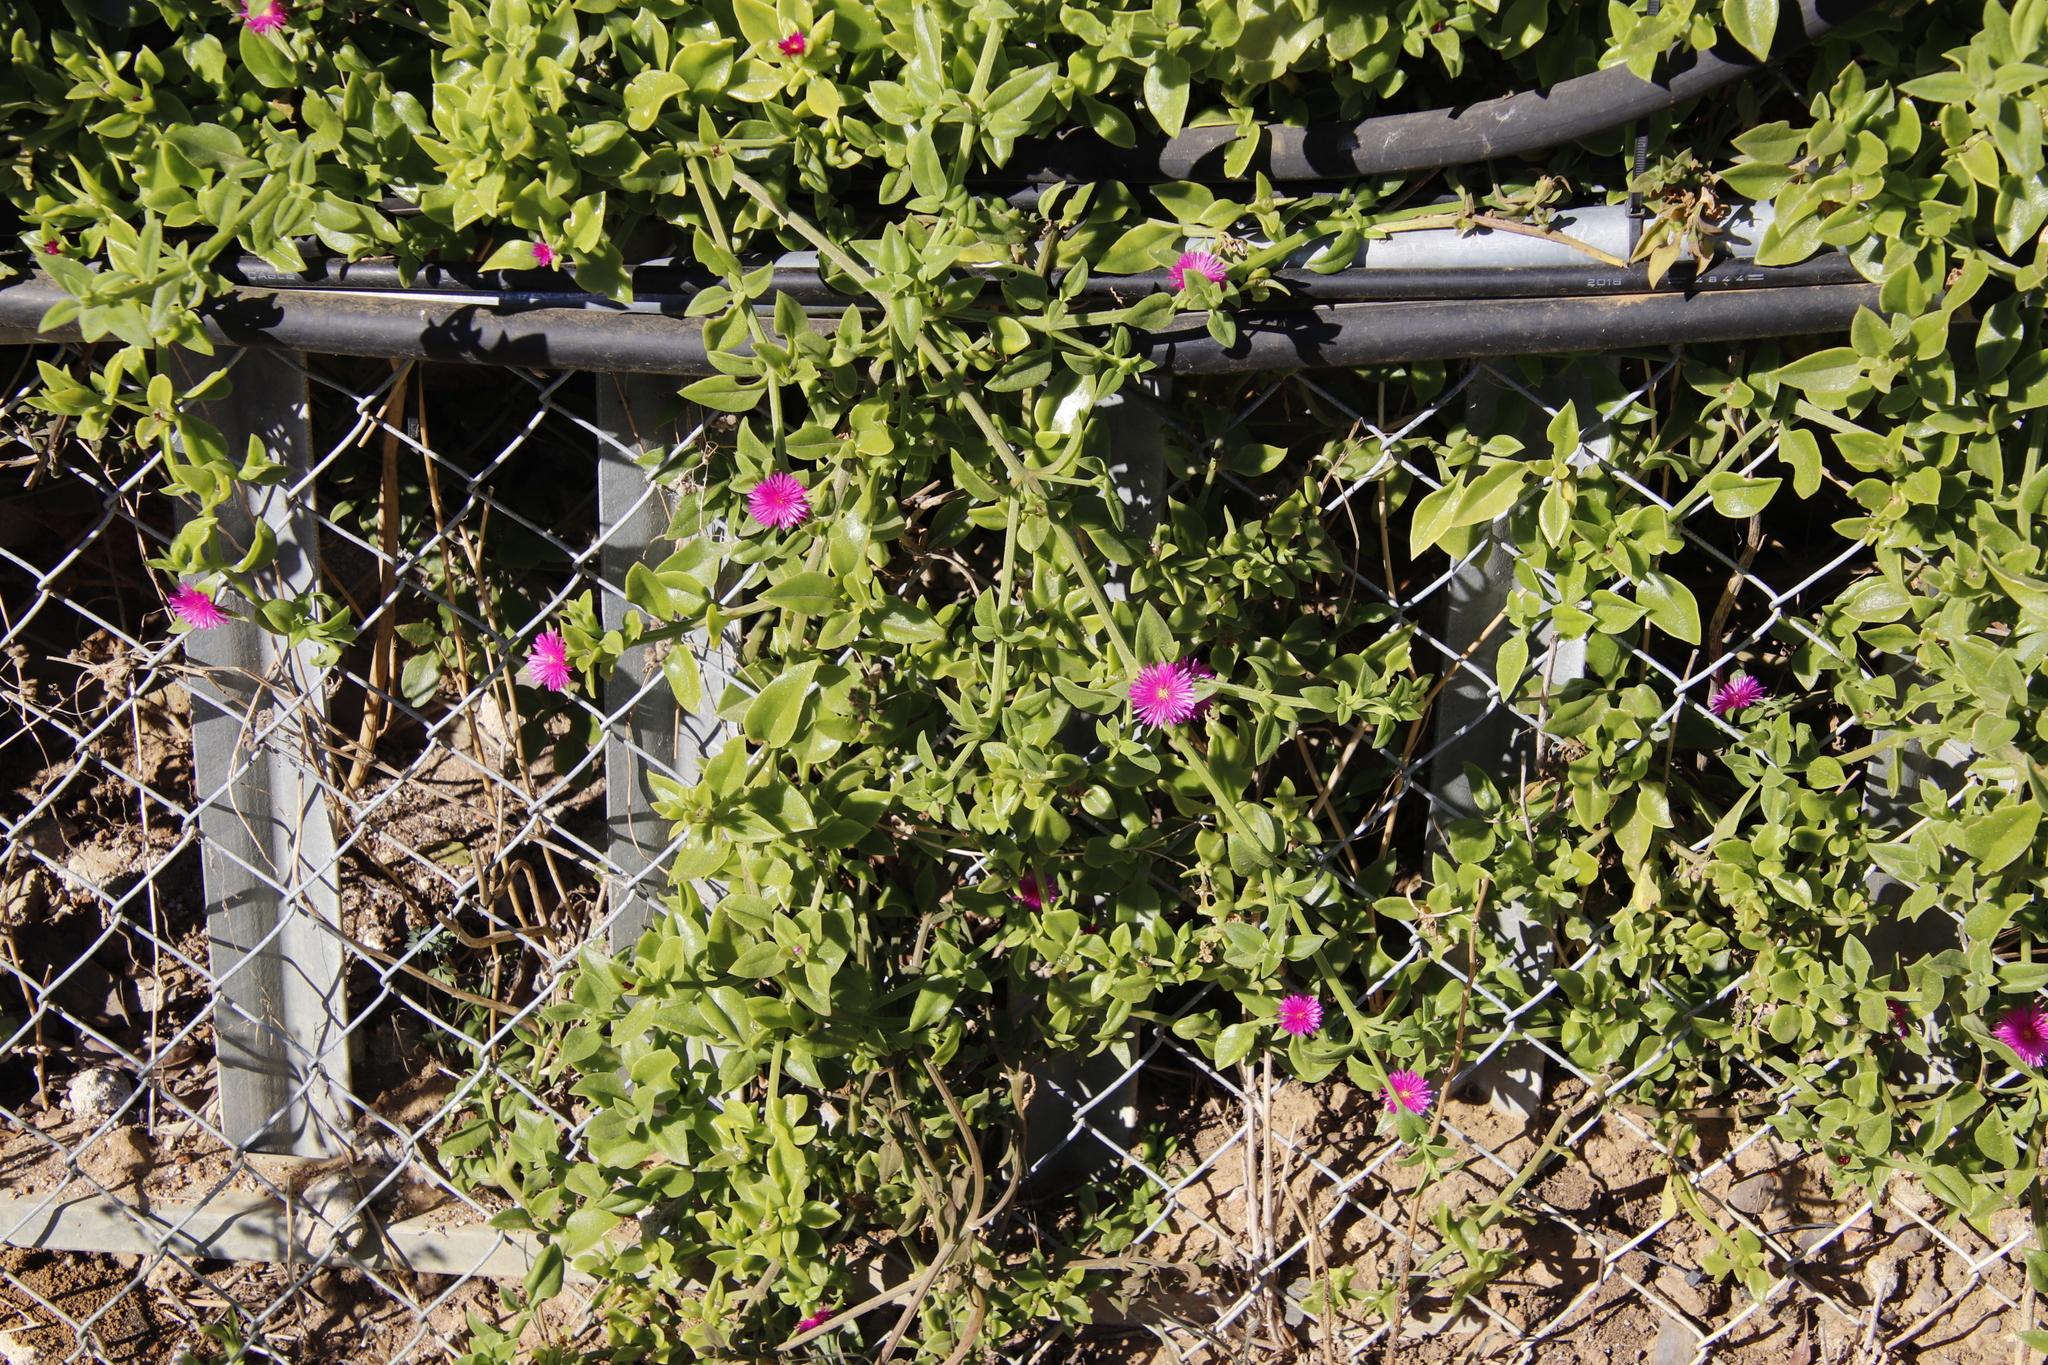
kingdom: Plantae
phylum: Tracheophyta
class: Magnoliopsida
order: Caryophyllales
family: Aizoaceae
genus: Mesembryanthemum
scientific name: Mesembryanthemum cordifolium
